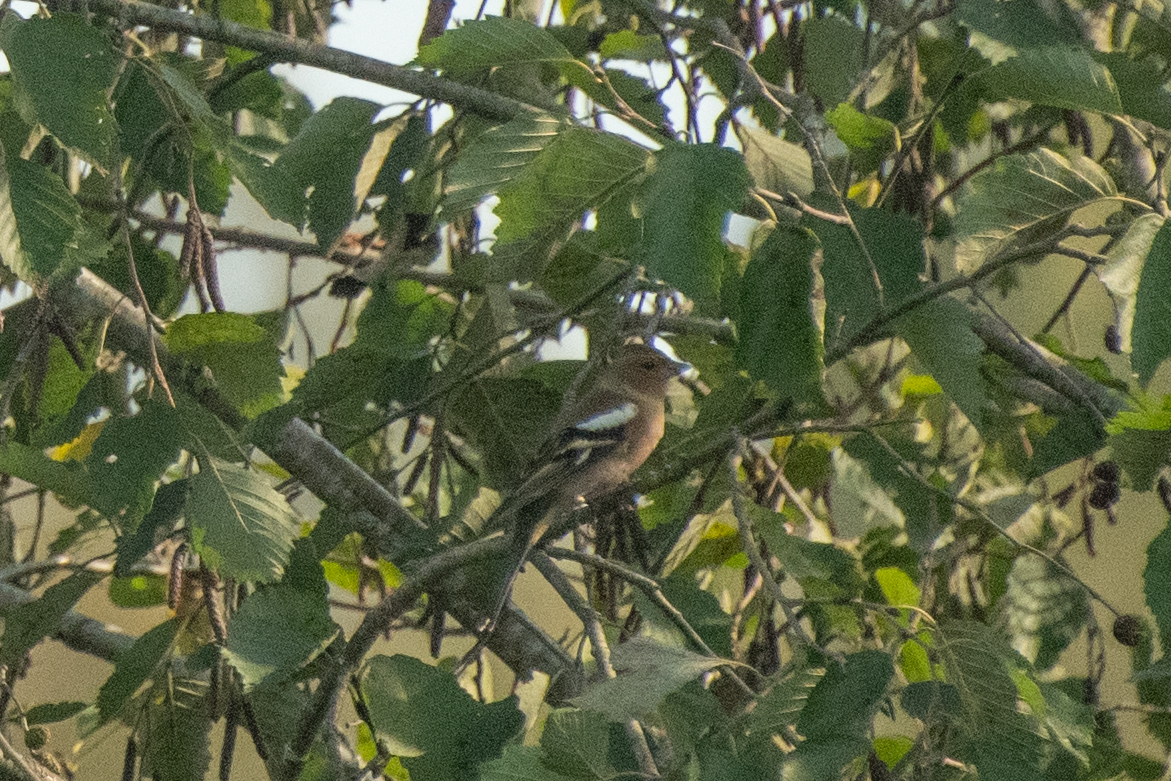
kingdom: Animalia
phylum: Chordata
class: Aves
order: Passeriformes
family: Fringillidae
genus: Fringilla
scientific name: Fringilla coelebs
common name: Common chaffinch
